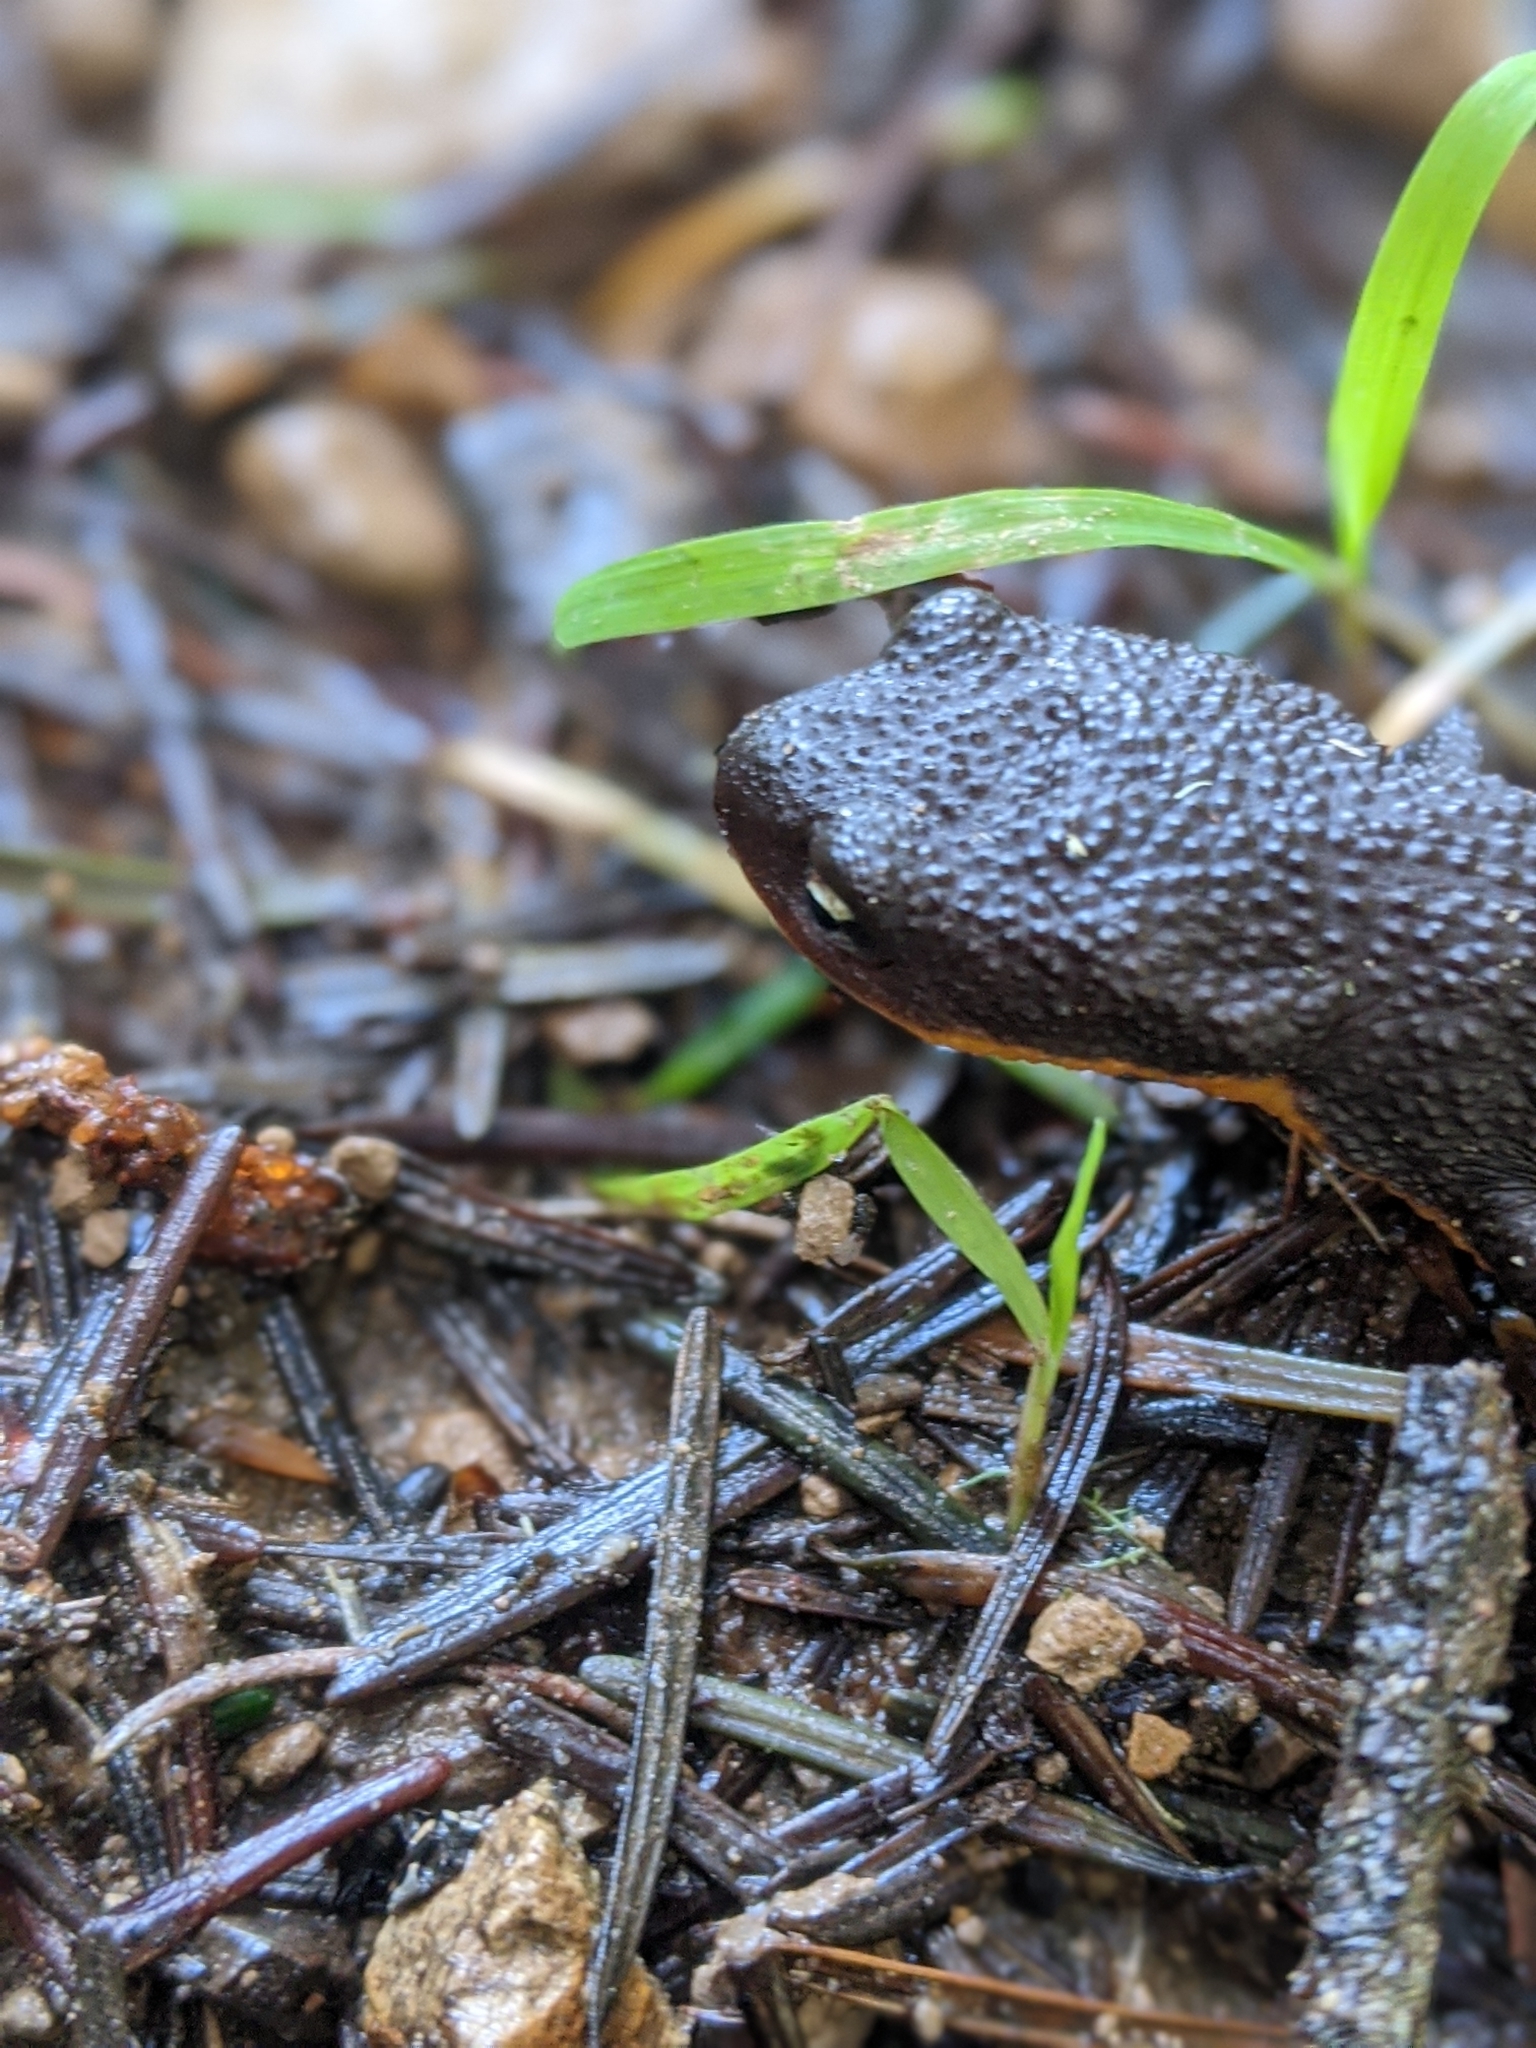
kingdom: Animalia
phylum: Chordata
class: Amphibia
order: Caudata
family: Salamandridae
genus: Taricha
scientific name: Taricha granulosa
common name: Roughskin newt
